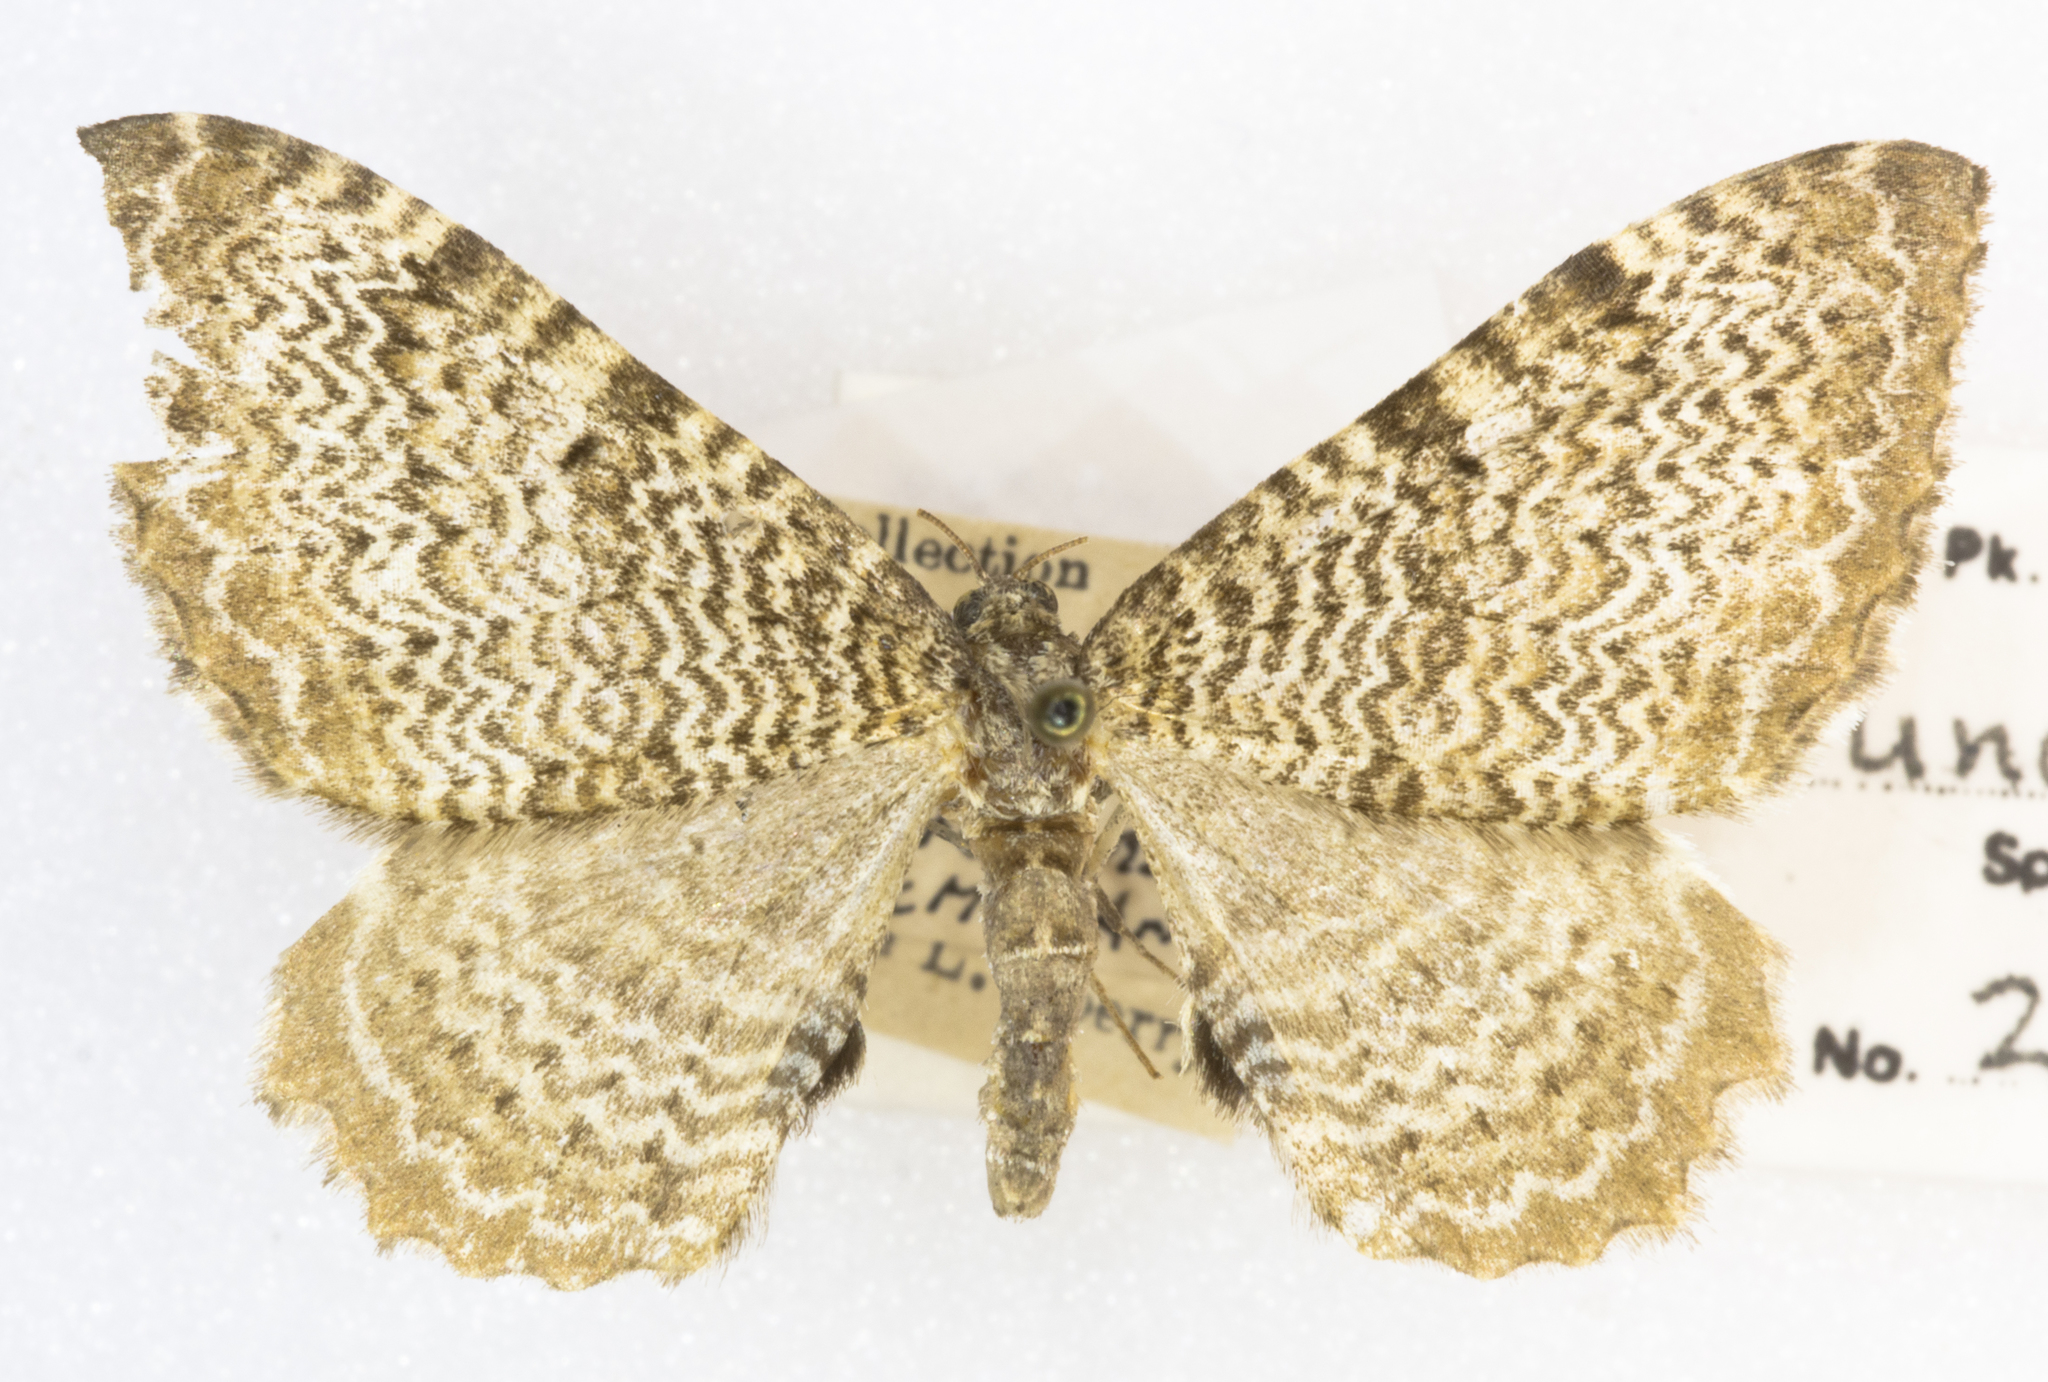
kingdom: Animalia
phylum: Arthropoda
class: Insecta
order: Lepidoptera
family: Geometridae
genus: Rheumaptera
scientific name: Rheumaptera undulata
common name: Scallop shell
